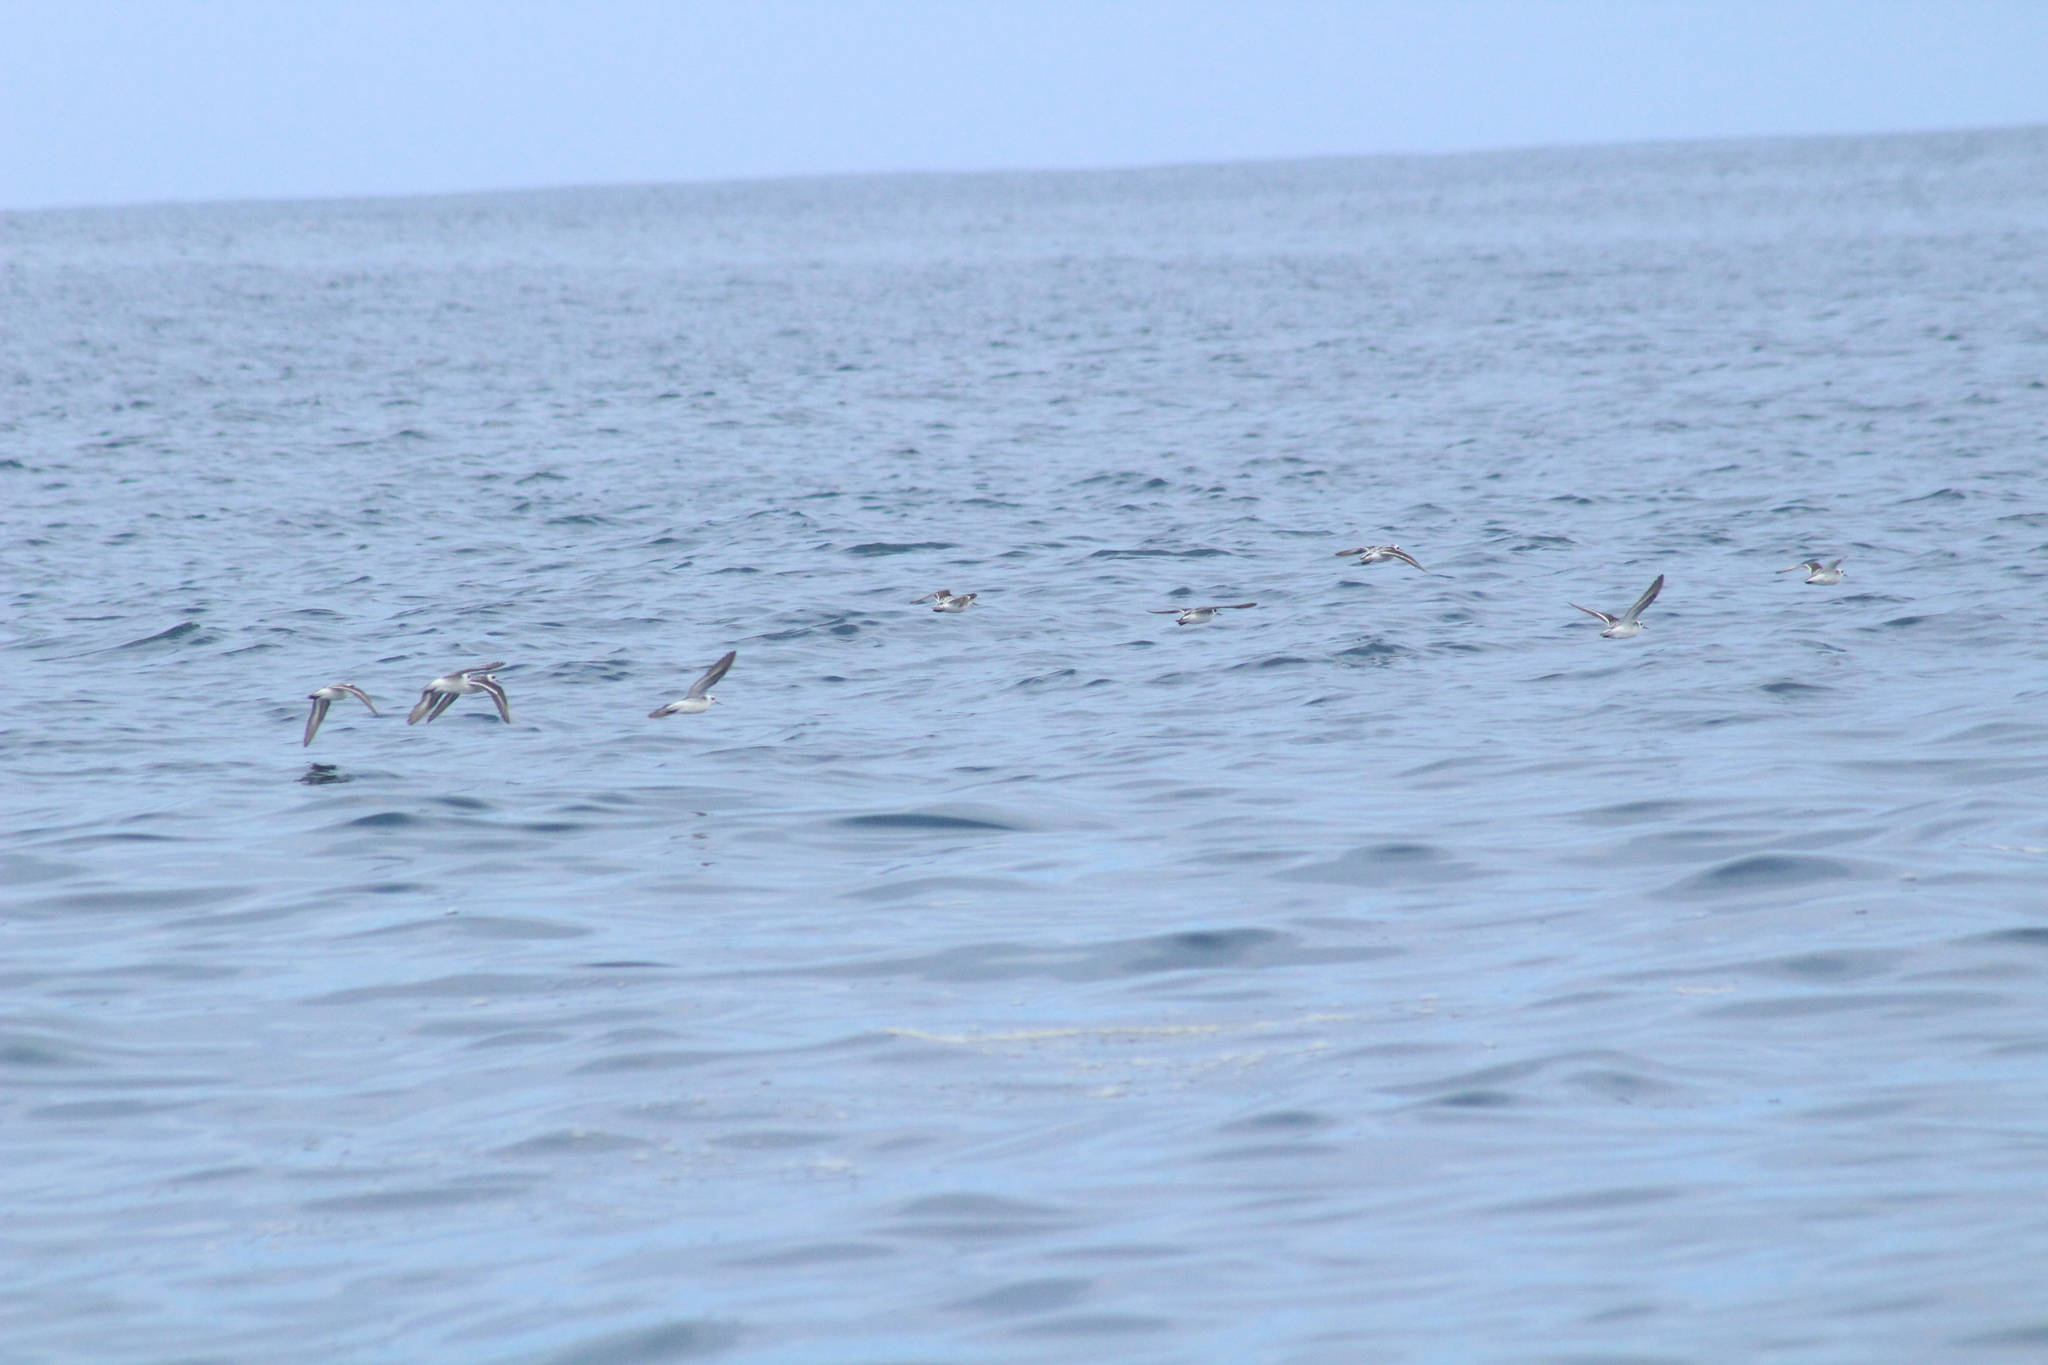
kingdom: Animalia
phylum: Chordata
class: Aves
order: Charadriiformes
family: Scolopacidae
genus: Phalaropus
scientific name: Phalaropus lobatus
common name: Red-necked phalarope
